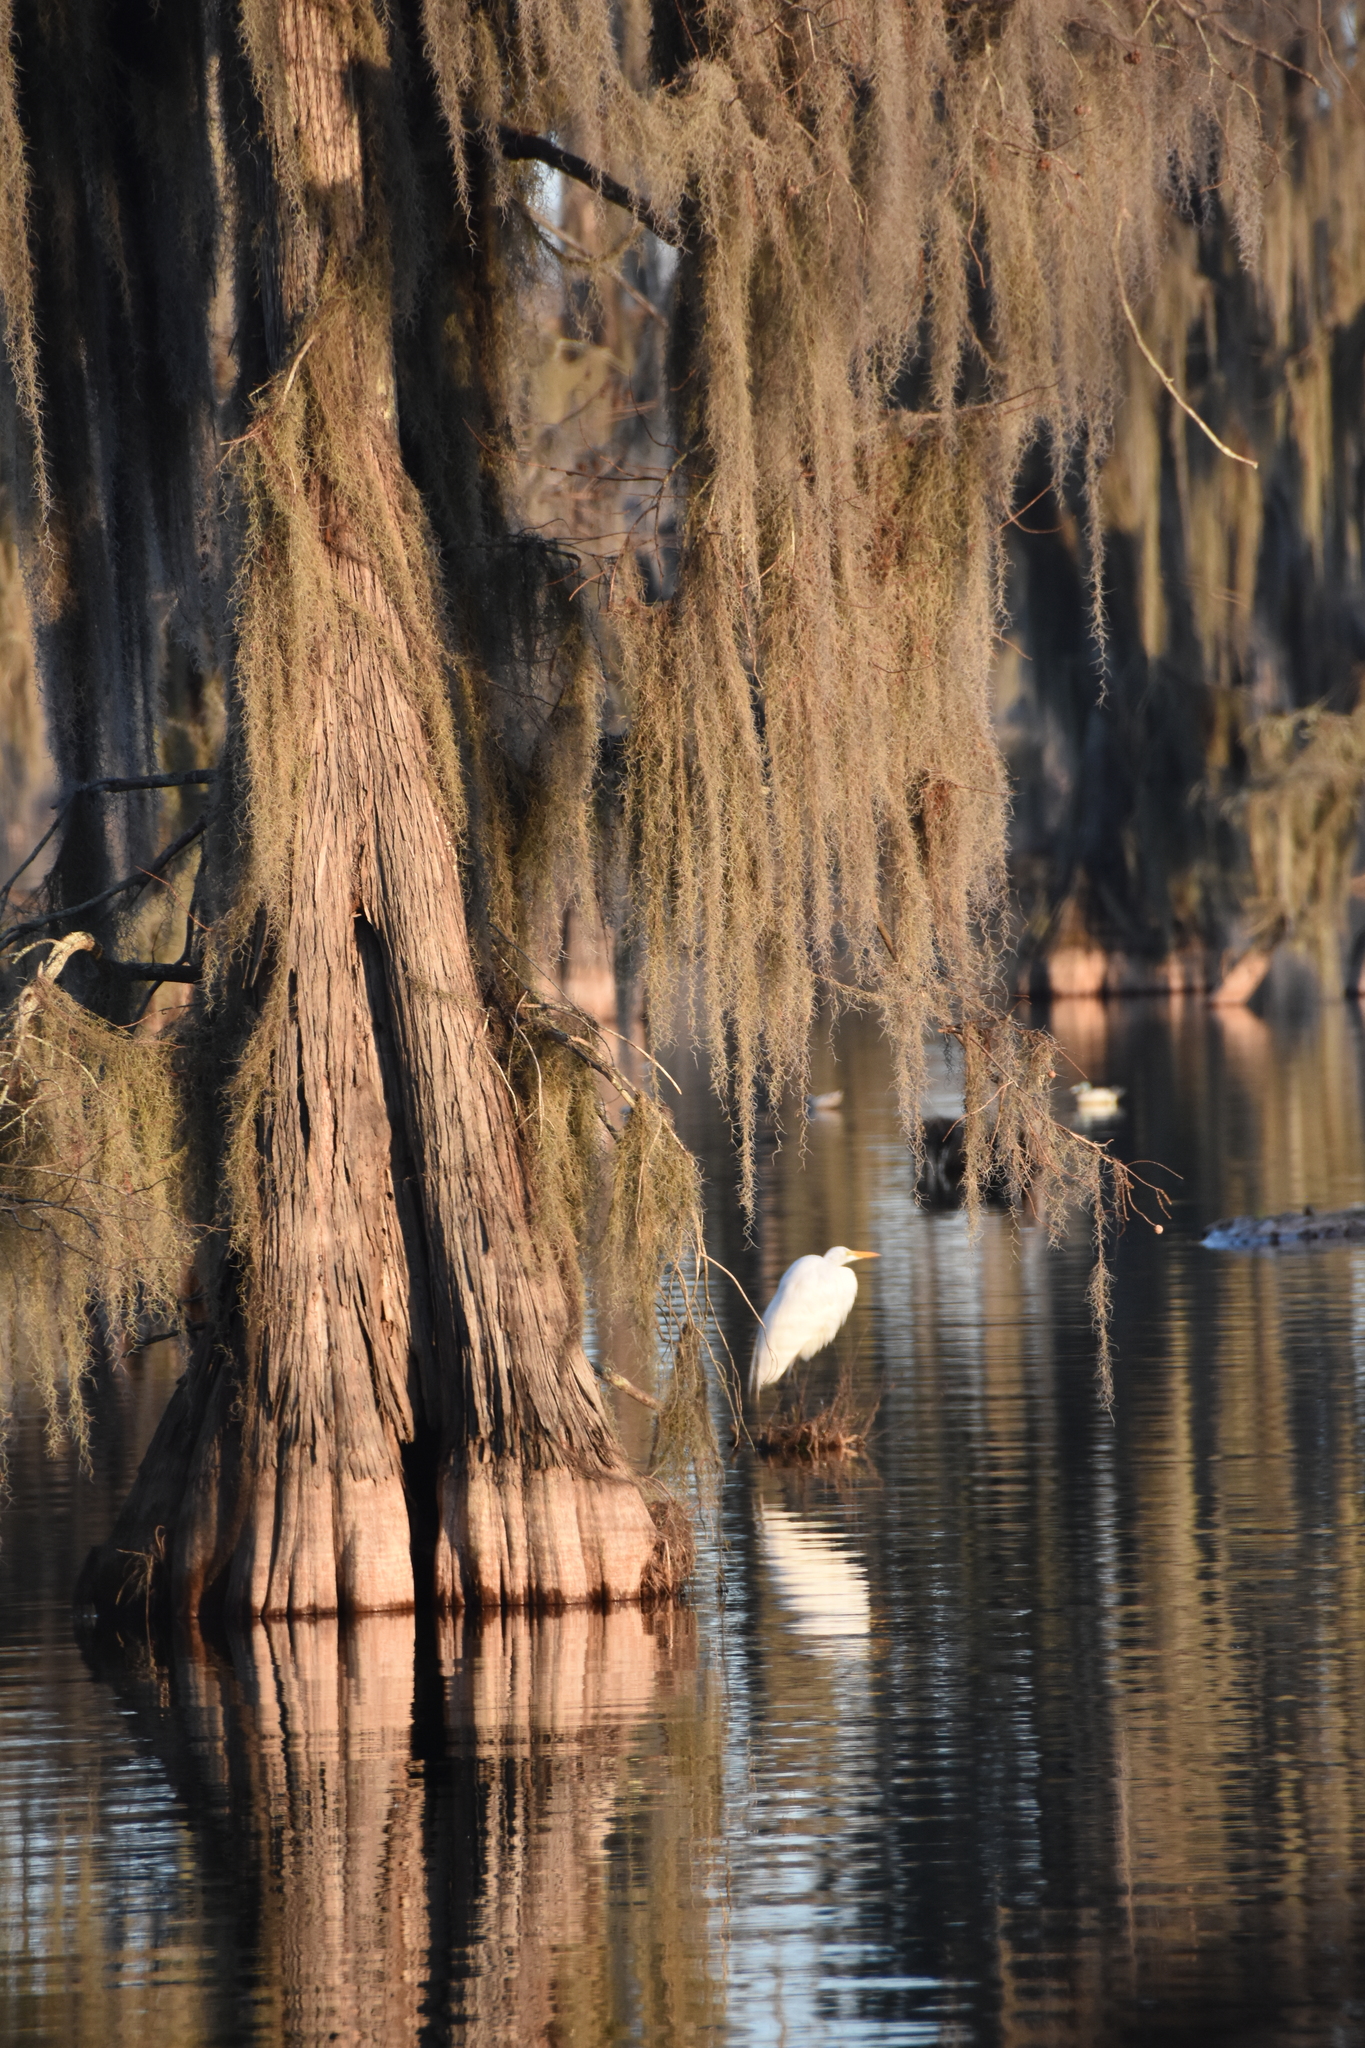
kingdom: Animalia
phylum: Chordata
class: Aves
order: Pelecaniformes
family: Ardeidae
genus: Ardea
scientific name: Ardea alba
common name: Great egret
